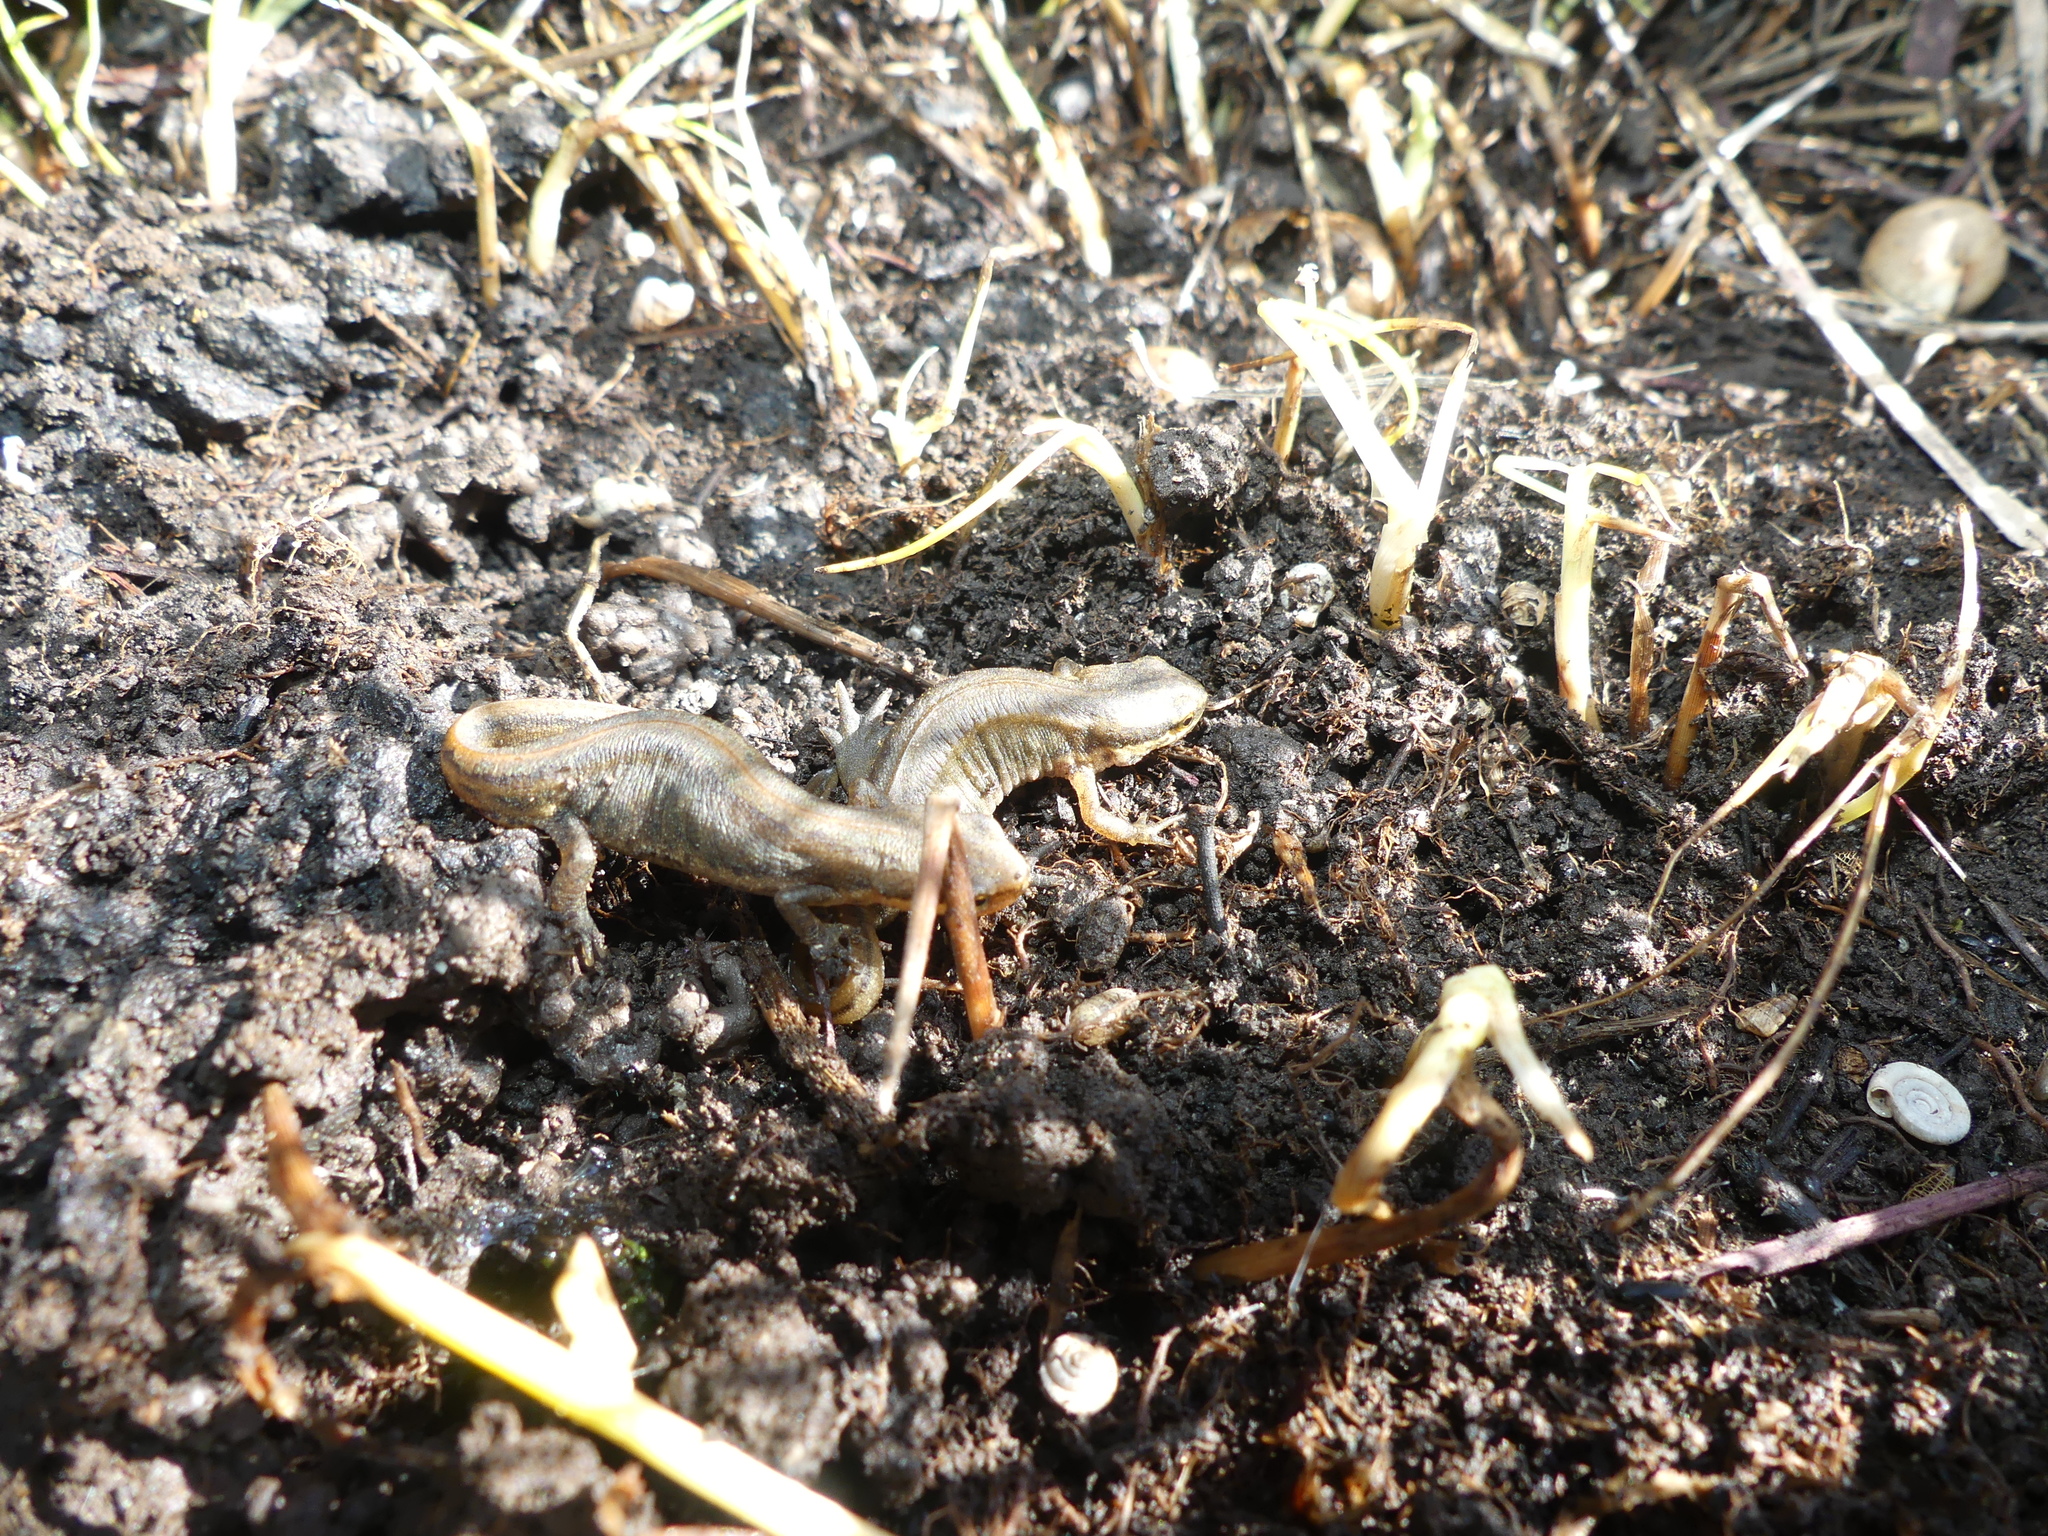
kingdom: Animalia
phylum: Chordata
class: Amphibia
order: Caudata
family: Salamandridae
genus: Lissotriton
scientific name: Lissotriton helveticus
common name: Palmate newt
